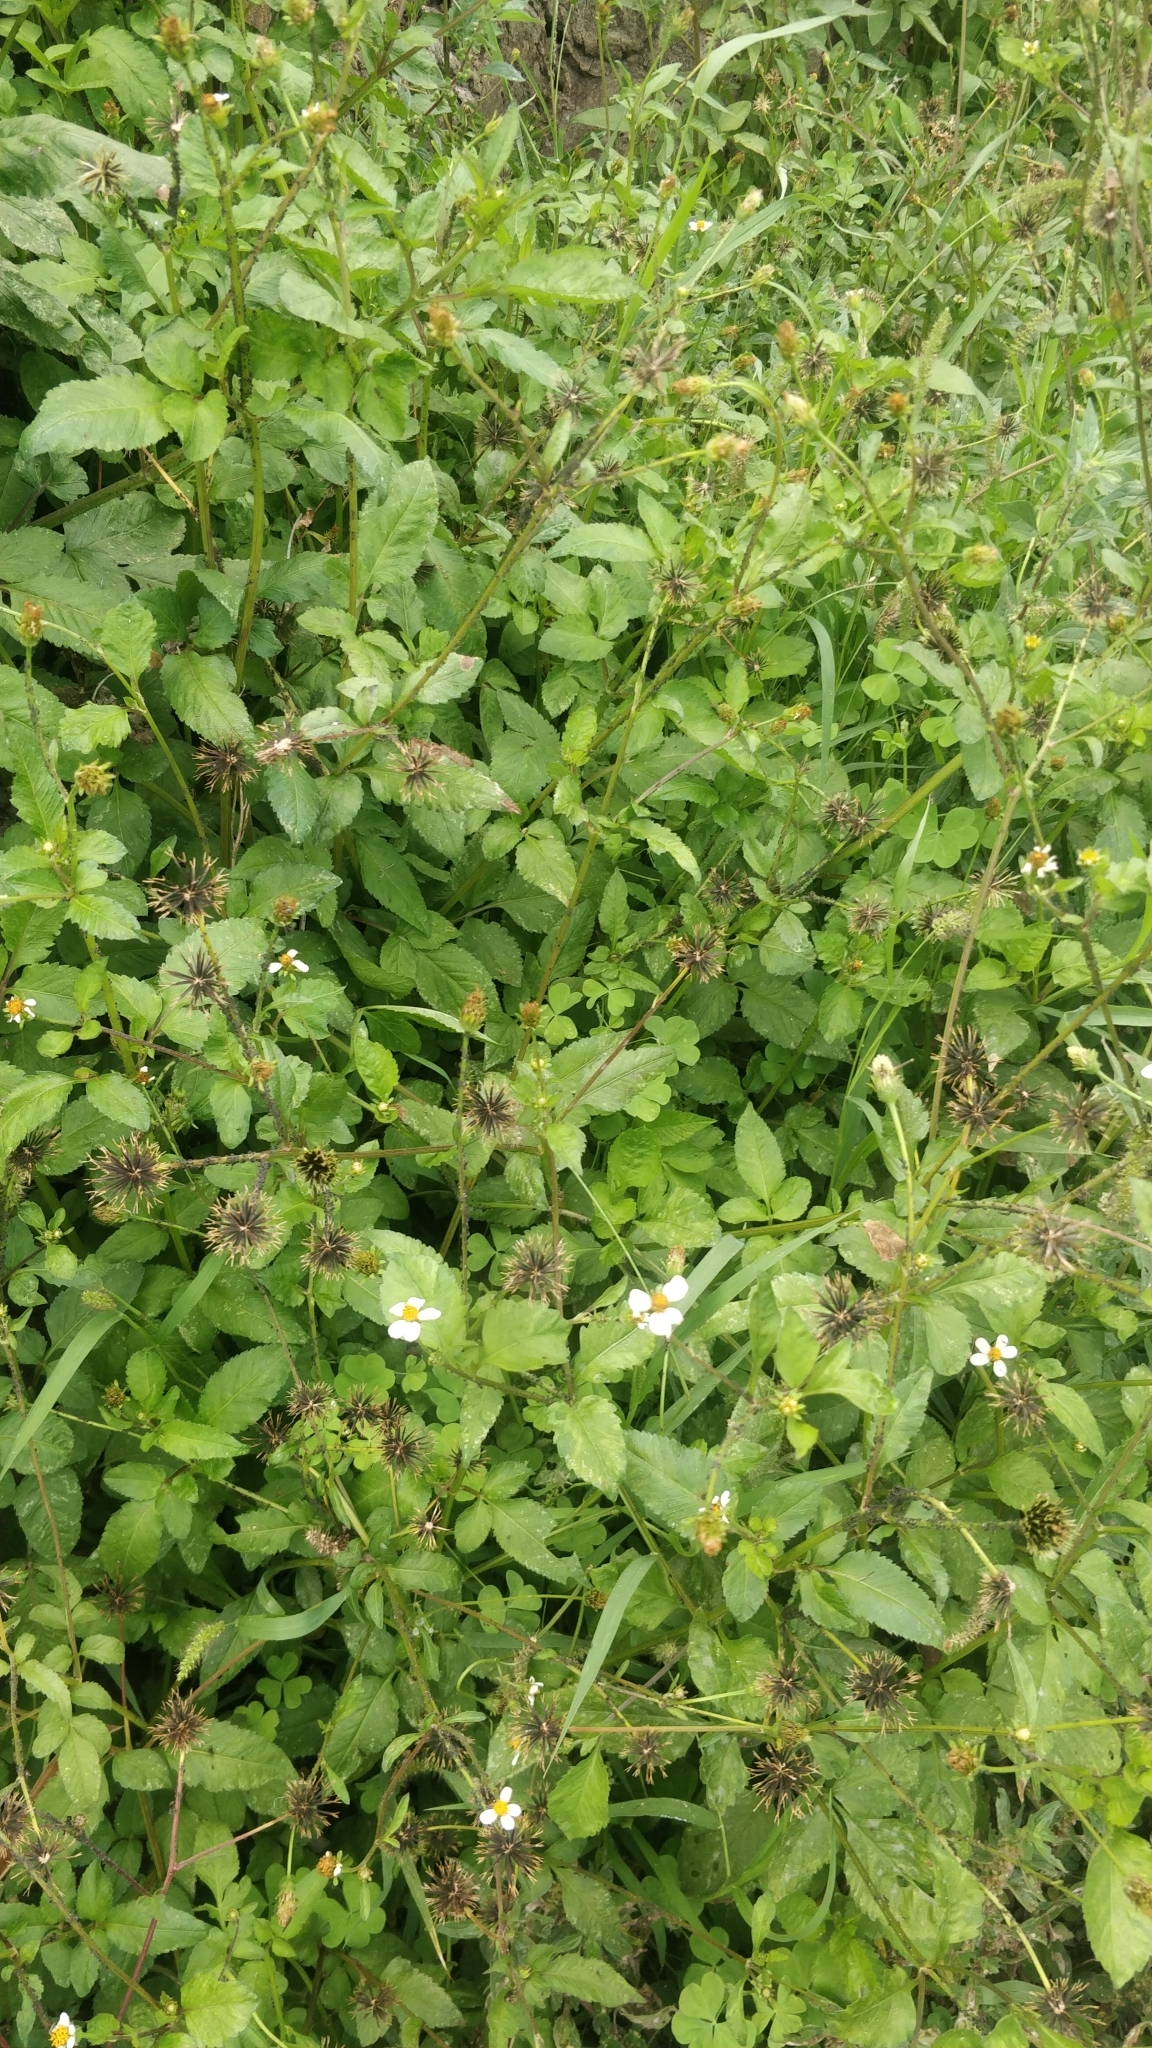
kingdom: Plantae
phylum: Tracheophyta
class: Magnoliopsida
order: Asterales
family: Asteraceae
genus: Bidens
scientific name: Bidens pilosa
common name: Black-jack
